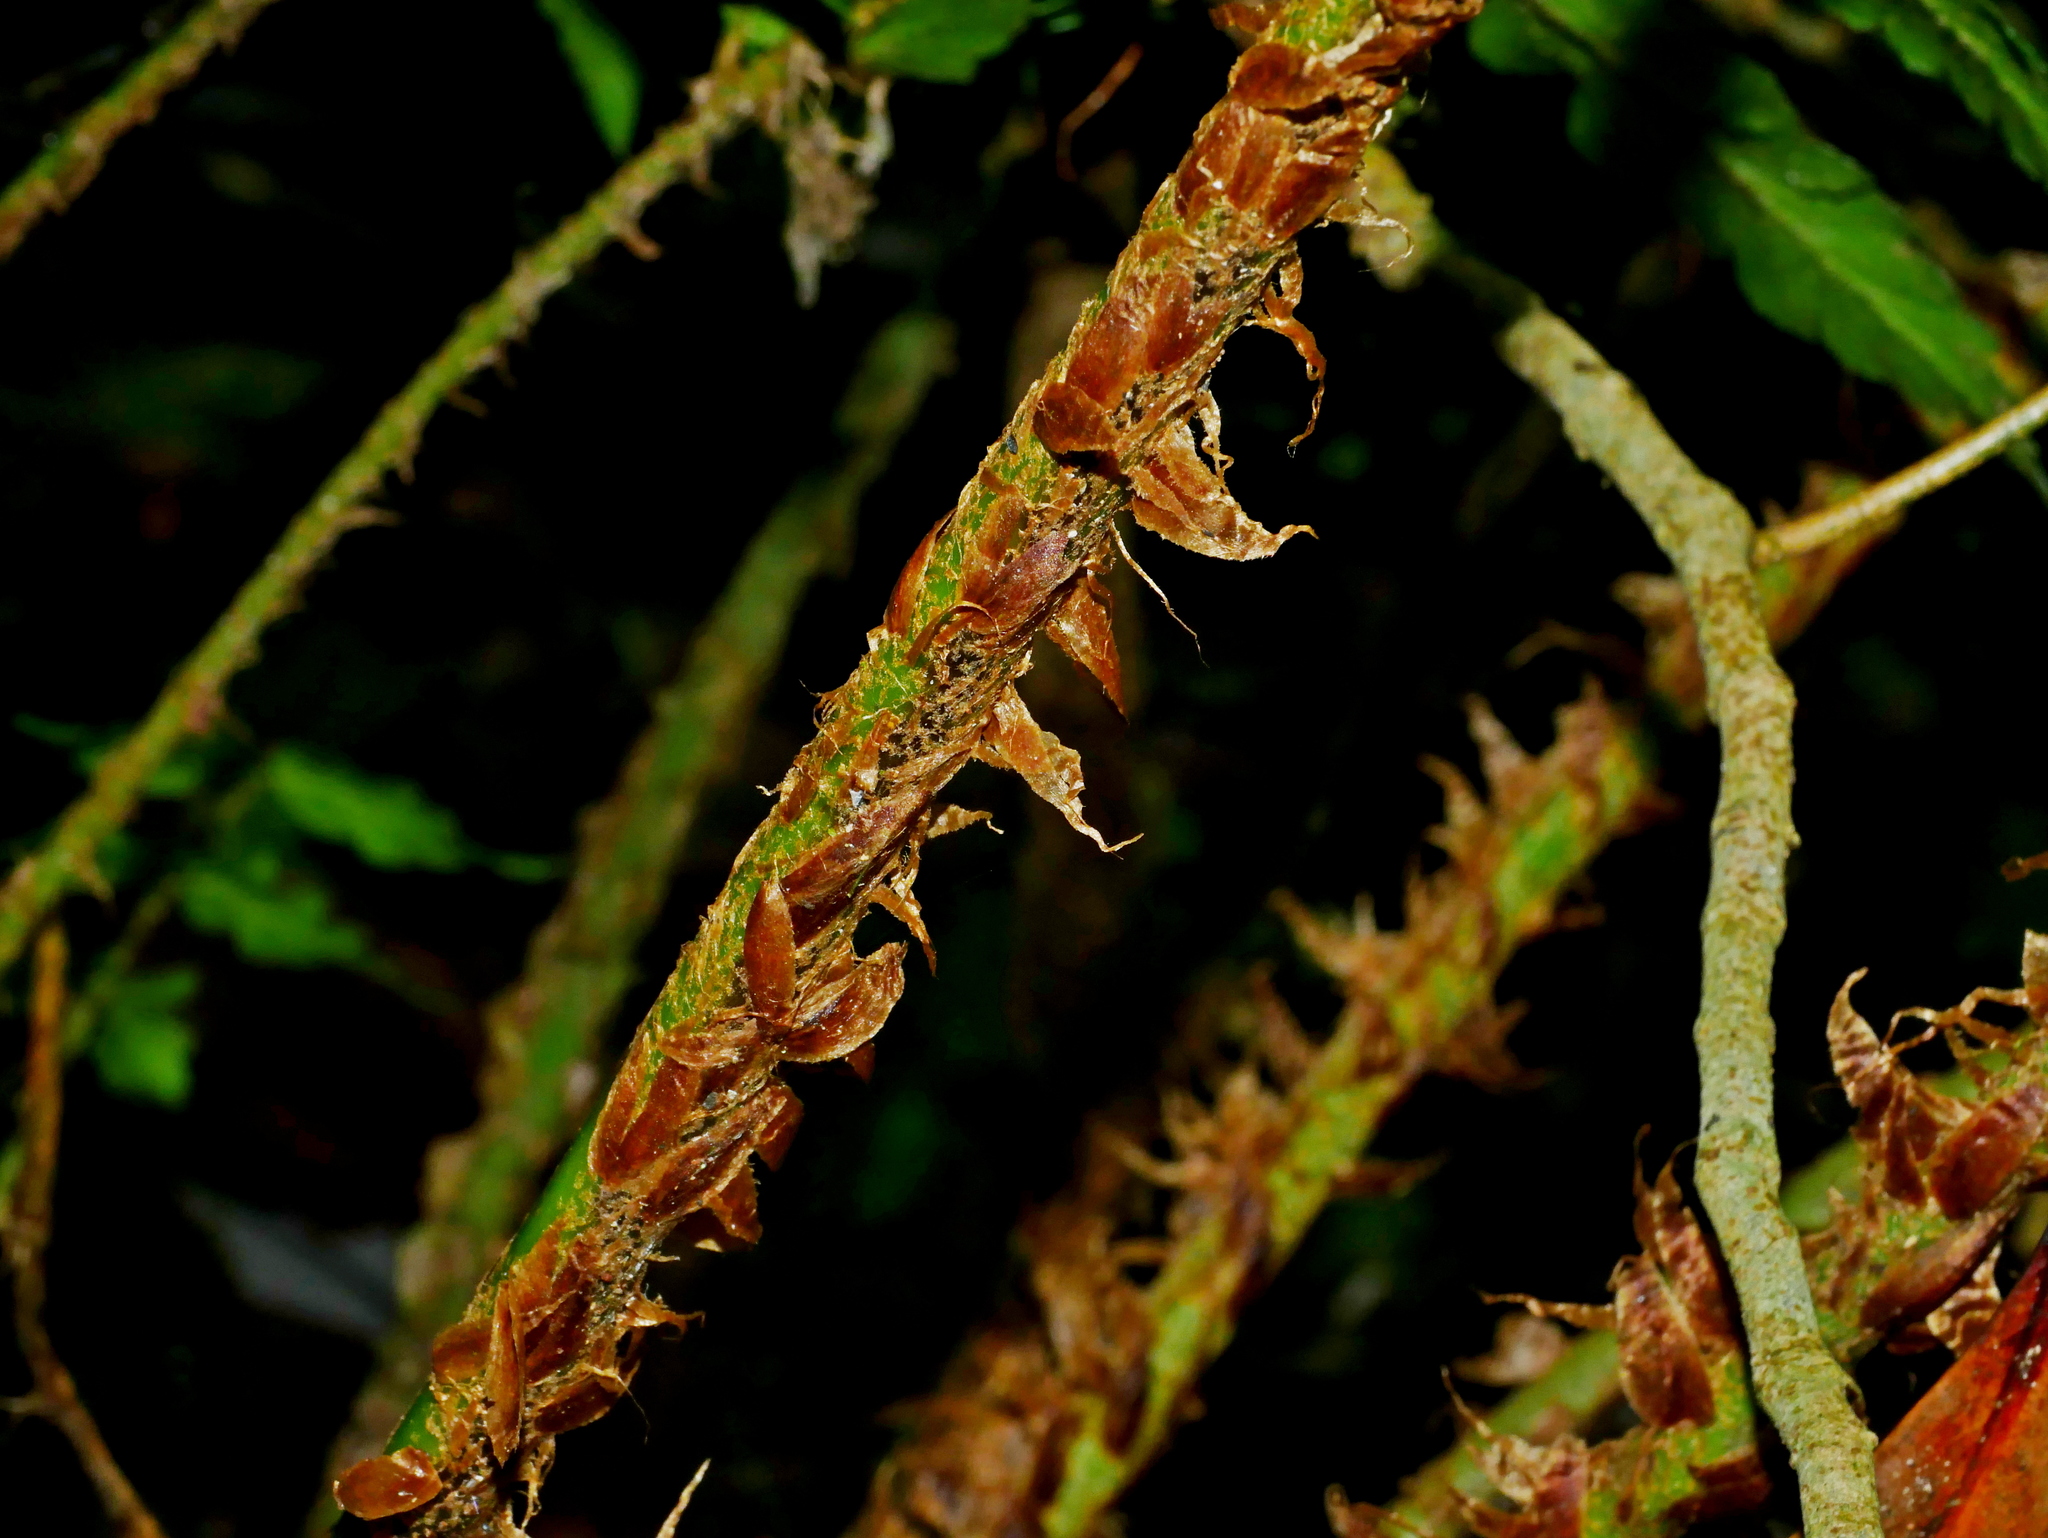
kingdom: Plantae
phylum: Tracheophyta
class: Polypodiopsida
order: Polypodiales
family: Dryopteridaceae
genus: Polystichum
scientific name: Polystichum scariosum
